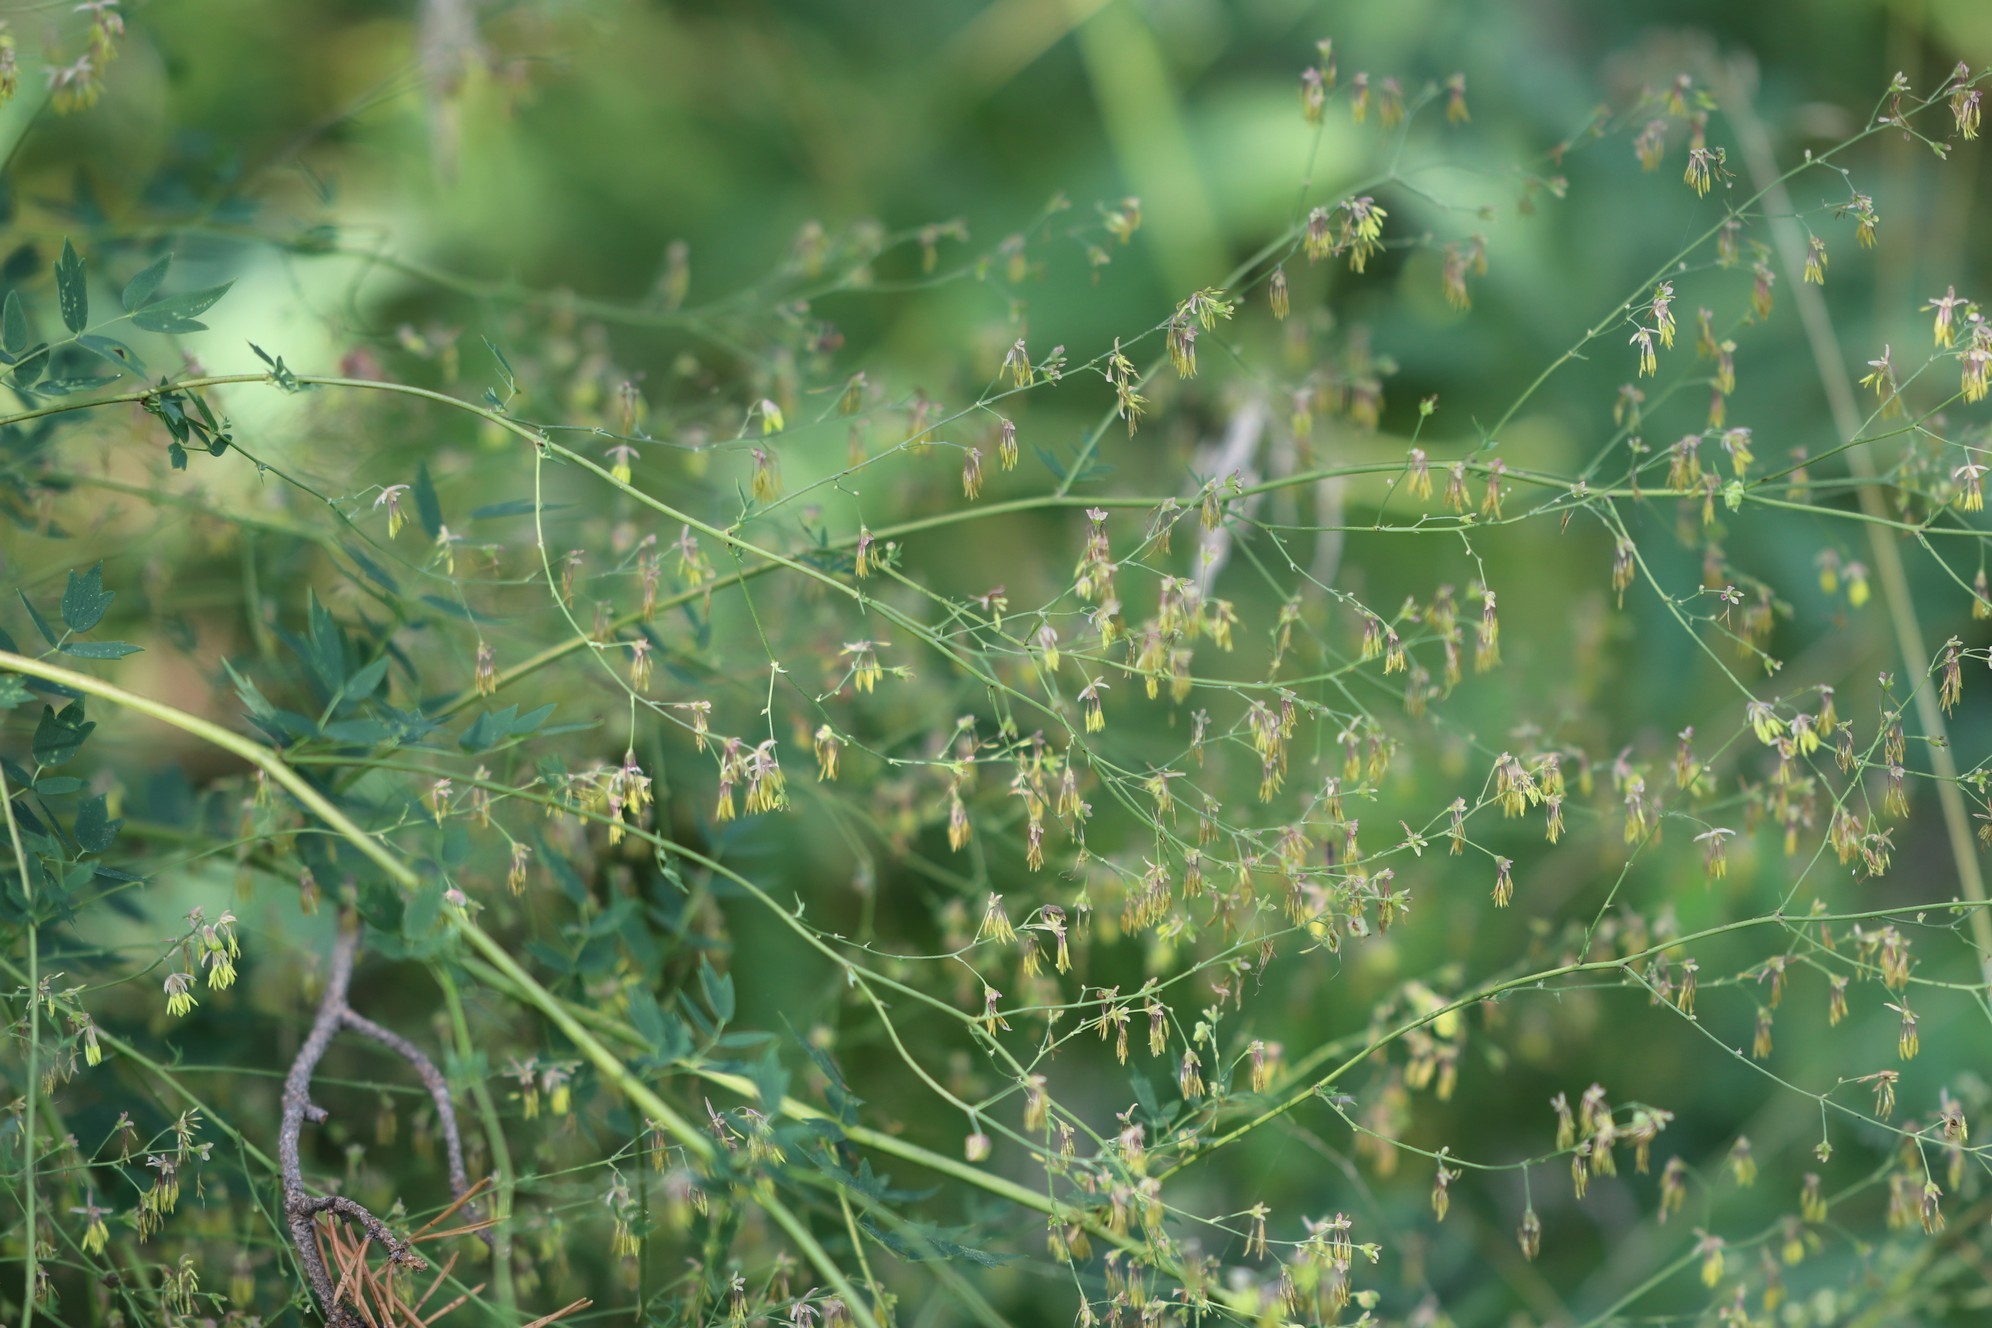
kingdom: Plantae
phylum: Tracheophyta
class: Magnoliopsida
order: Ranunculales
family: Ranunculaceae
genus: Thalictrum
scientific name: Thalictrum minus
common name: Lesser meadow-rue
